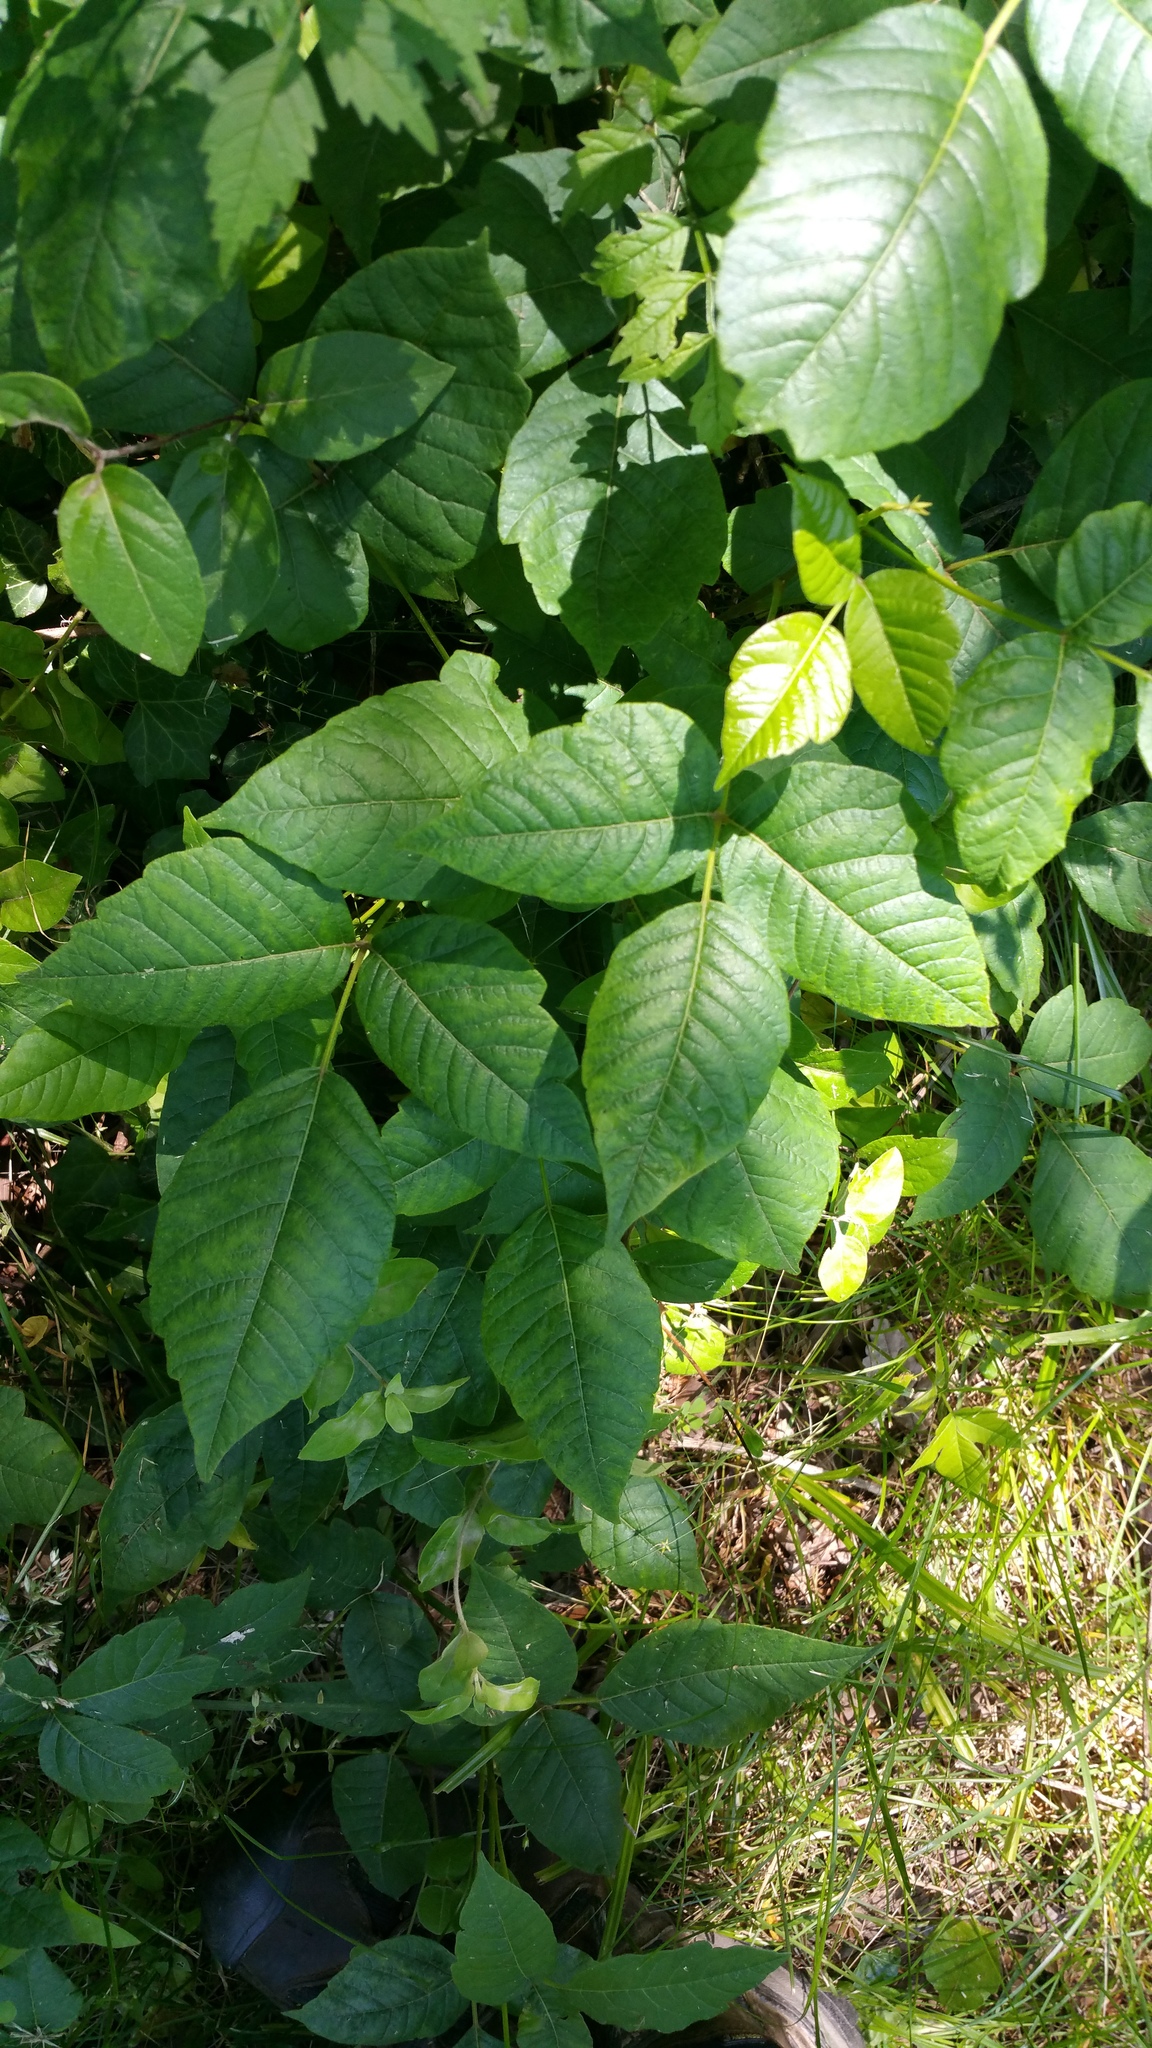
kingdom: Plantae
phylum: Tracheophyta
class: Magnoliopsida
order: Sapindales
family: Anacardiaceae
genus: Toxicodendron
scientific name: Toxicodendron radicans
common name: Poison ivy
